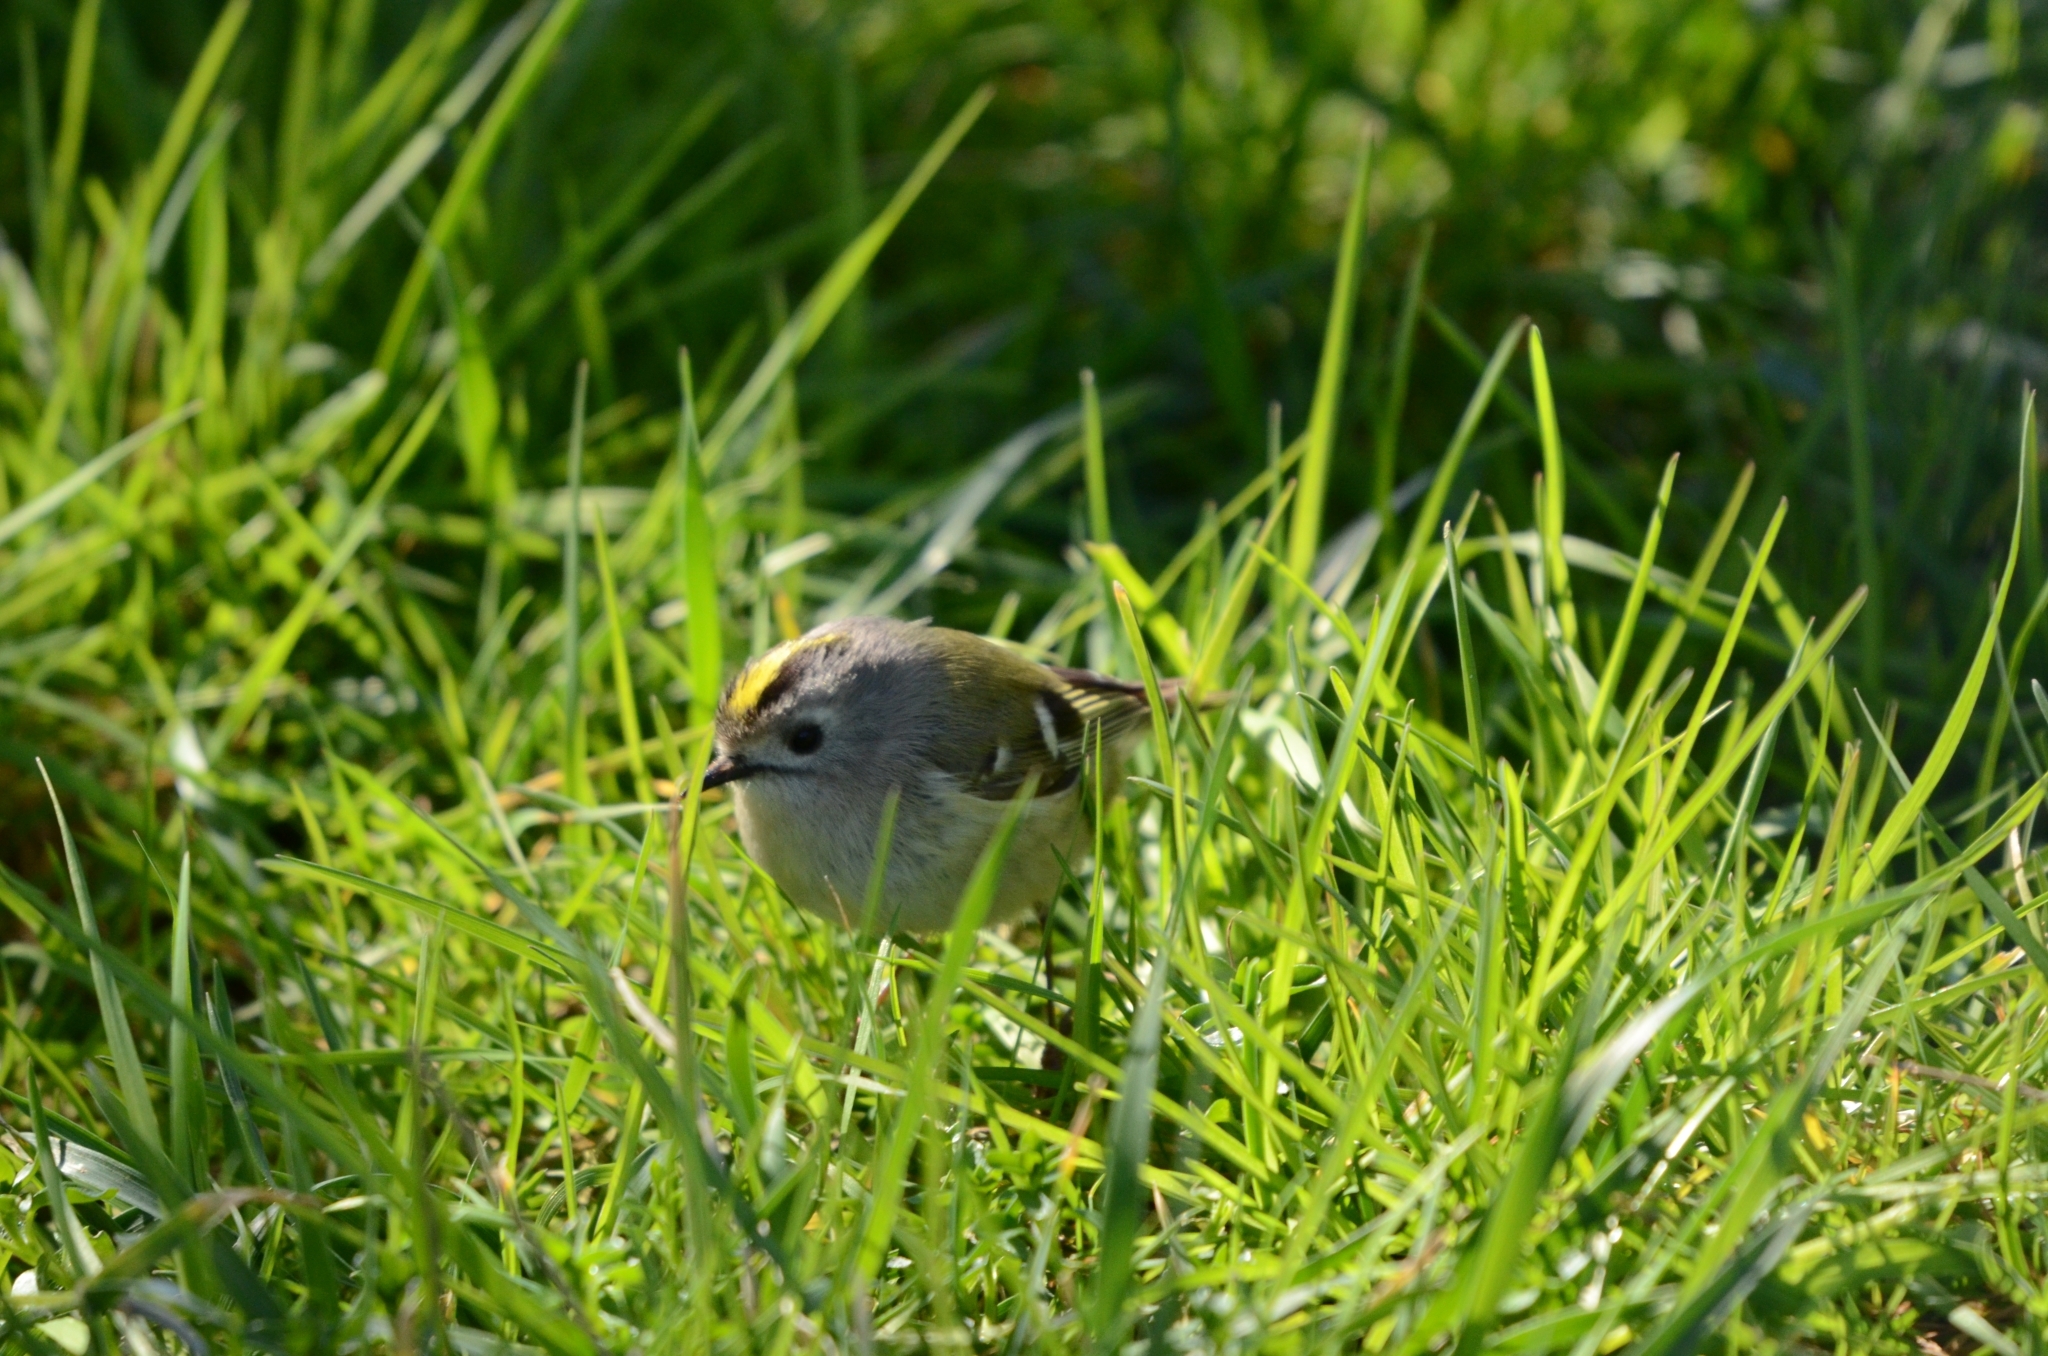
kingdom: Animalia
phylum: Chordata
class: Aves
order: Passeriformes
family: Regulidae
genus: Regulus
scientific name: Regulus regulus
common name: Goldcrest
